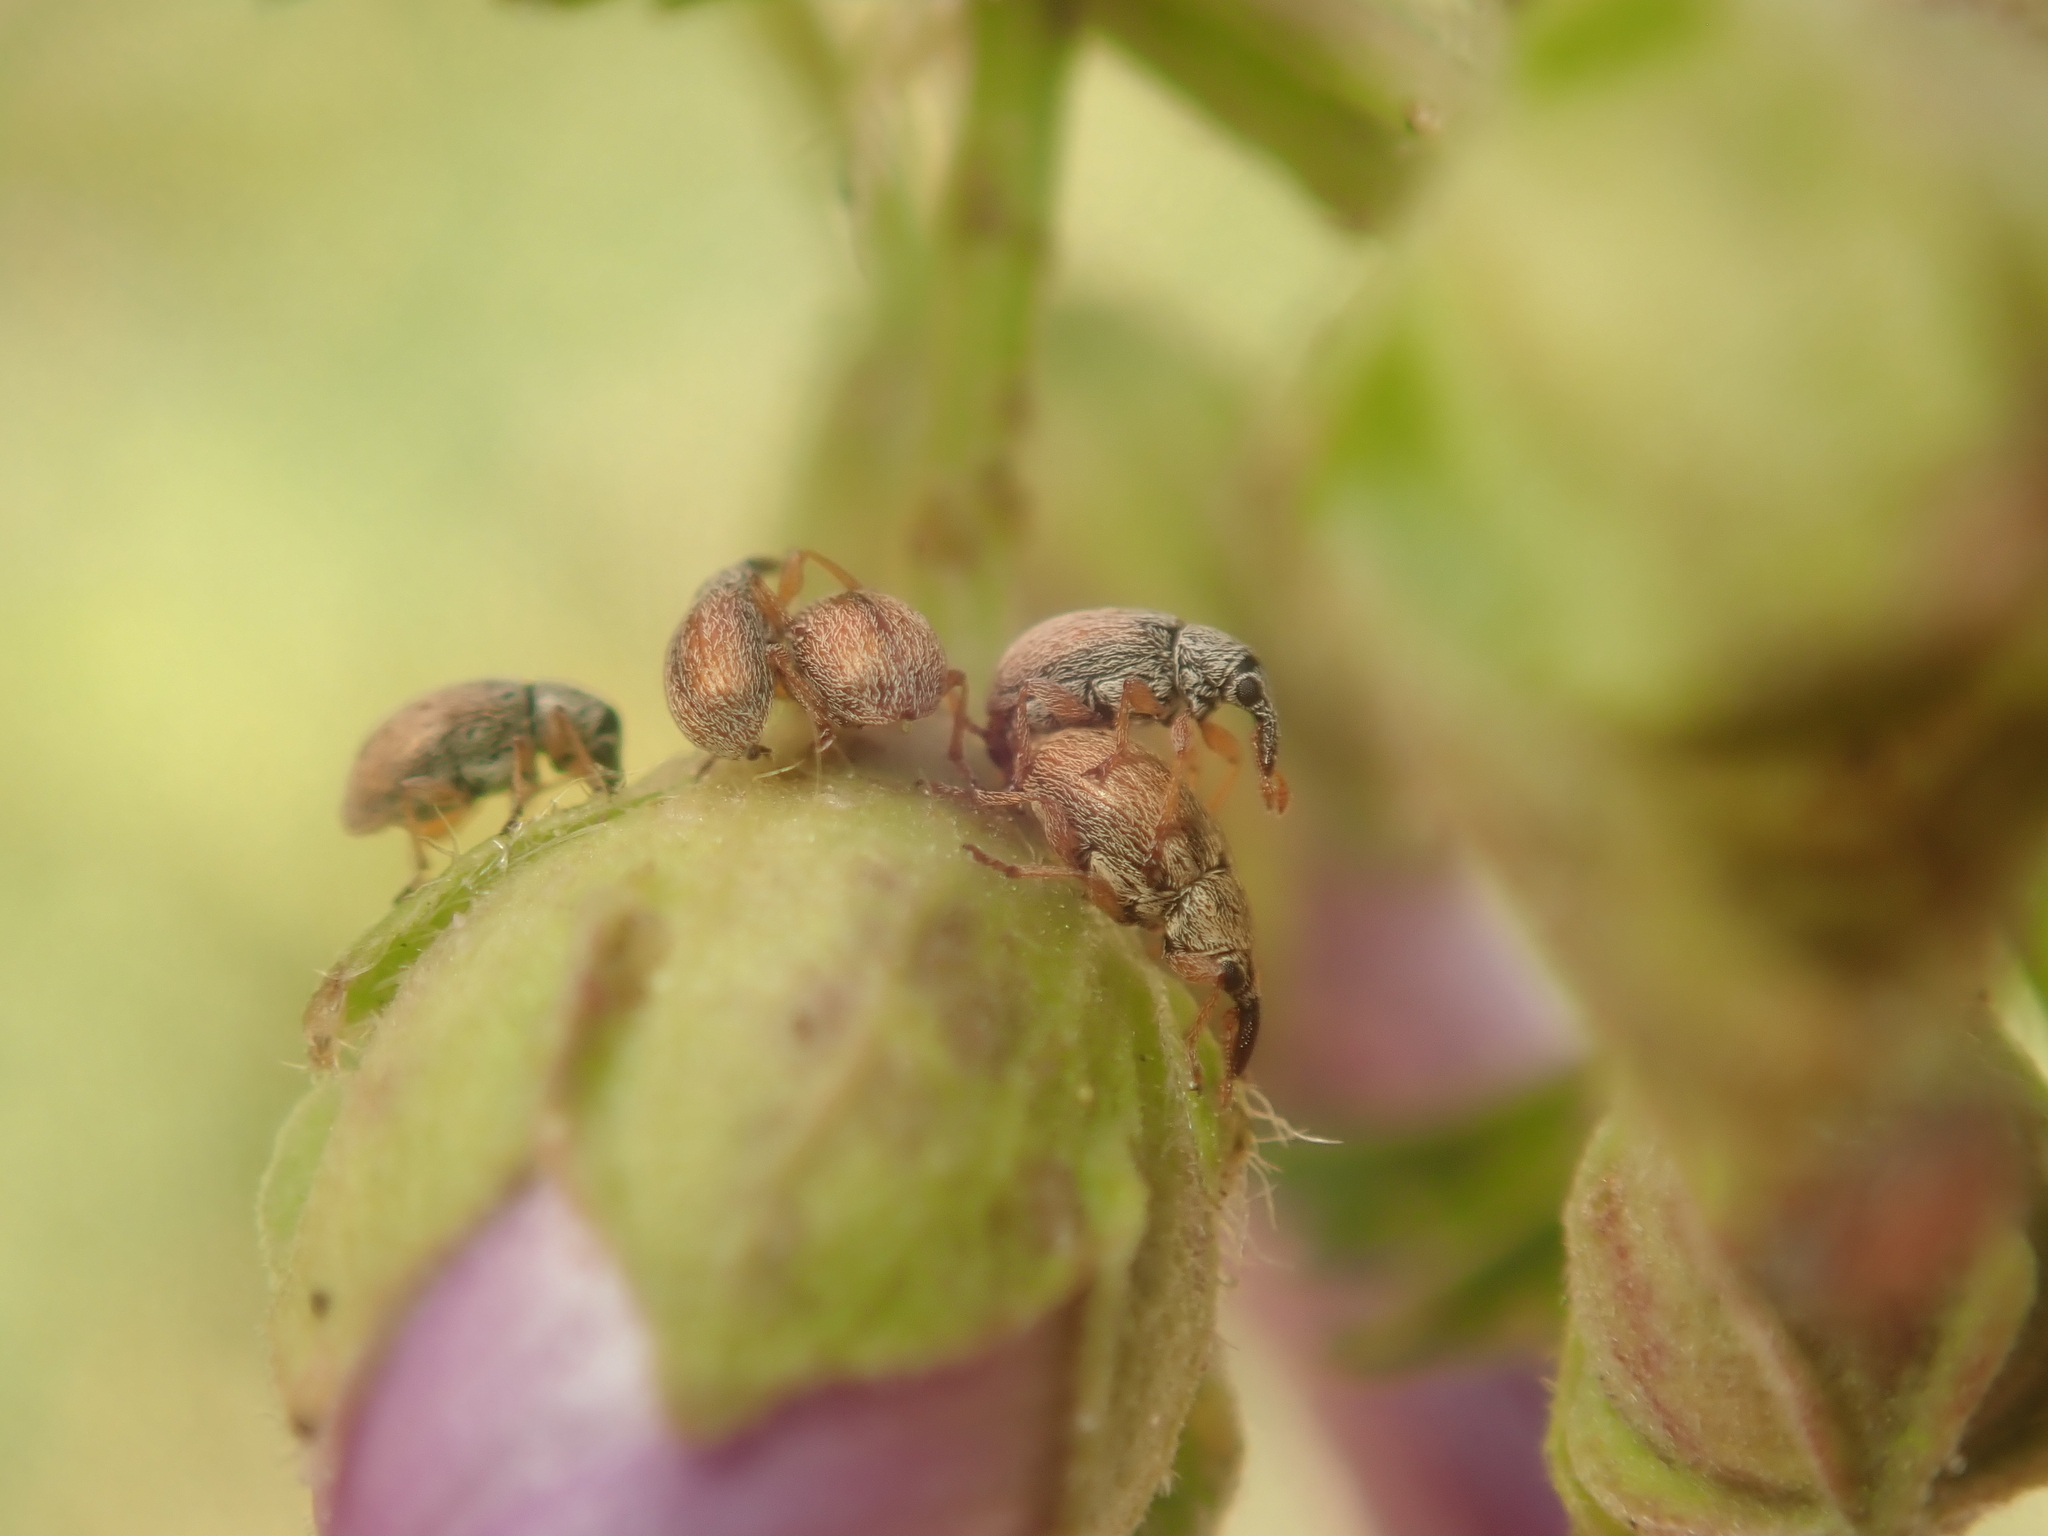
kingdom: Animalia
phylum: Arthropoda
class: Insecta
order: Coleoptera
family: Apionidae
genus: Malvapion
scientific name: Malvapion malvae
